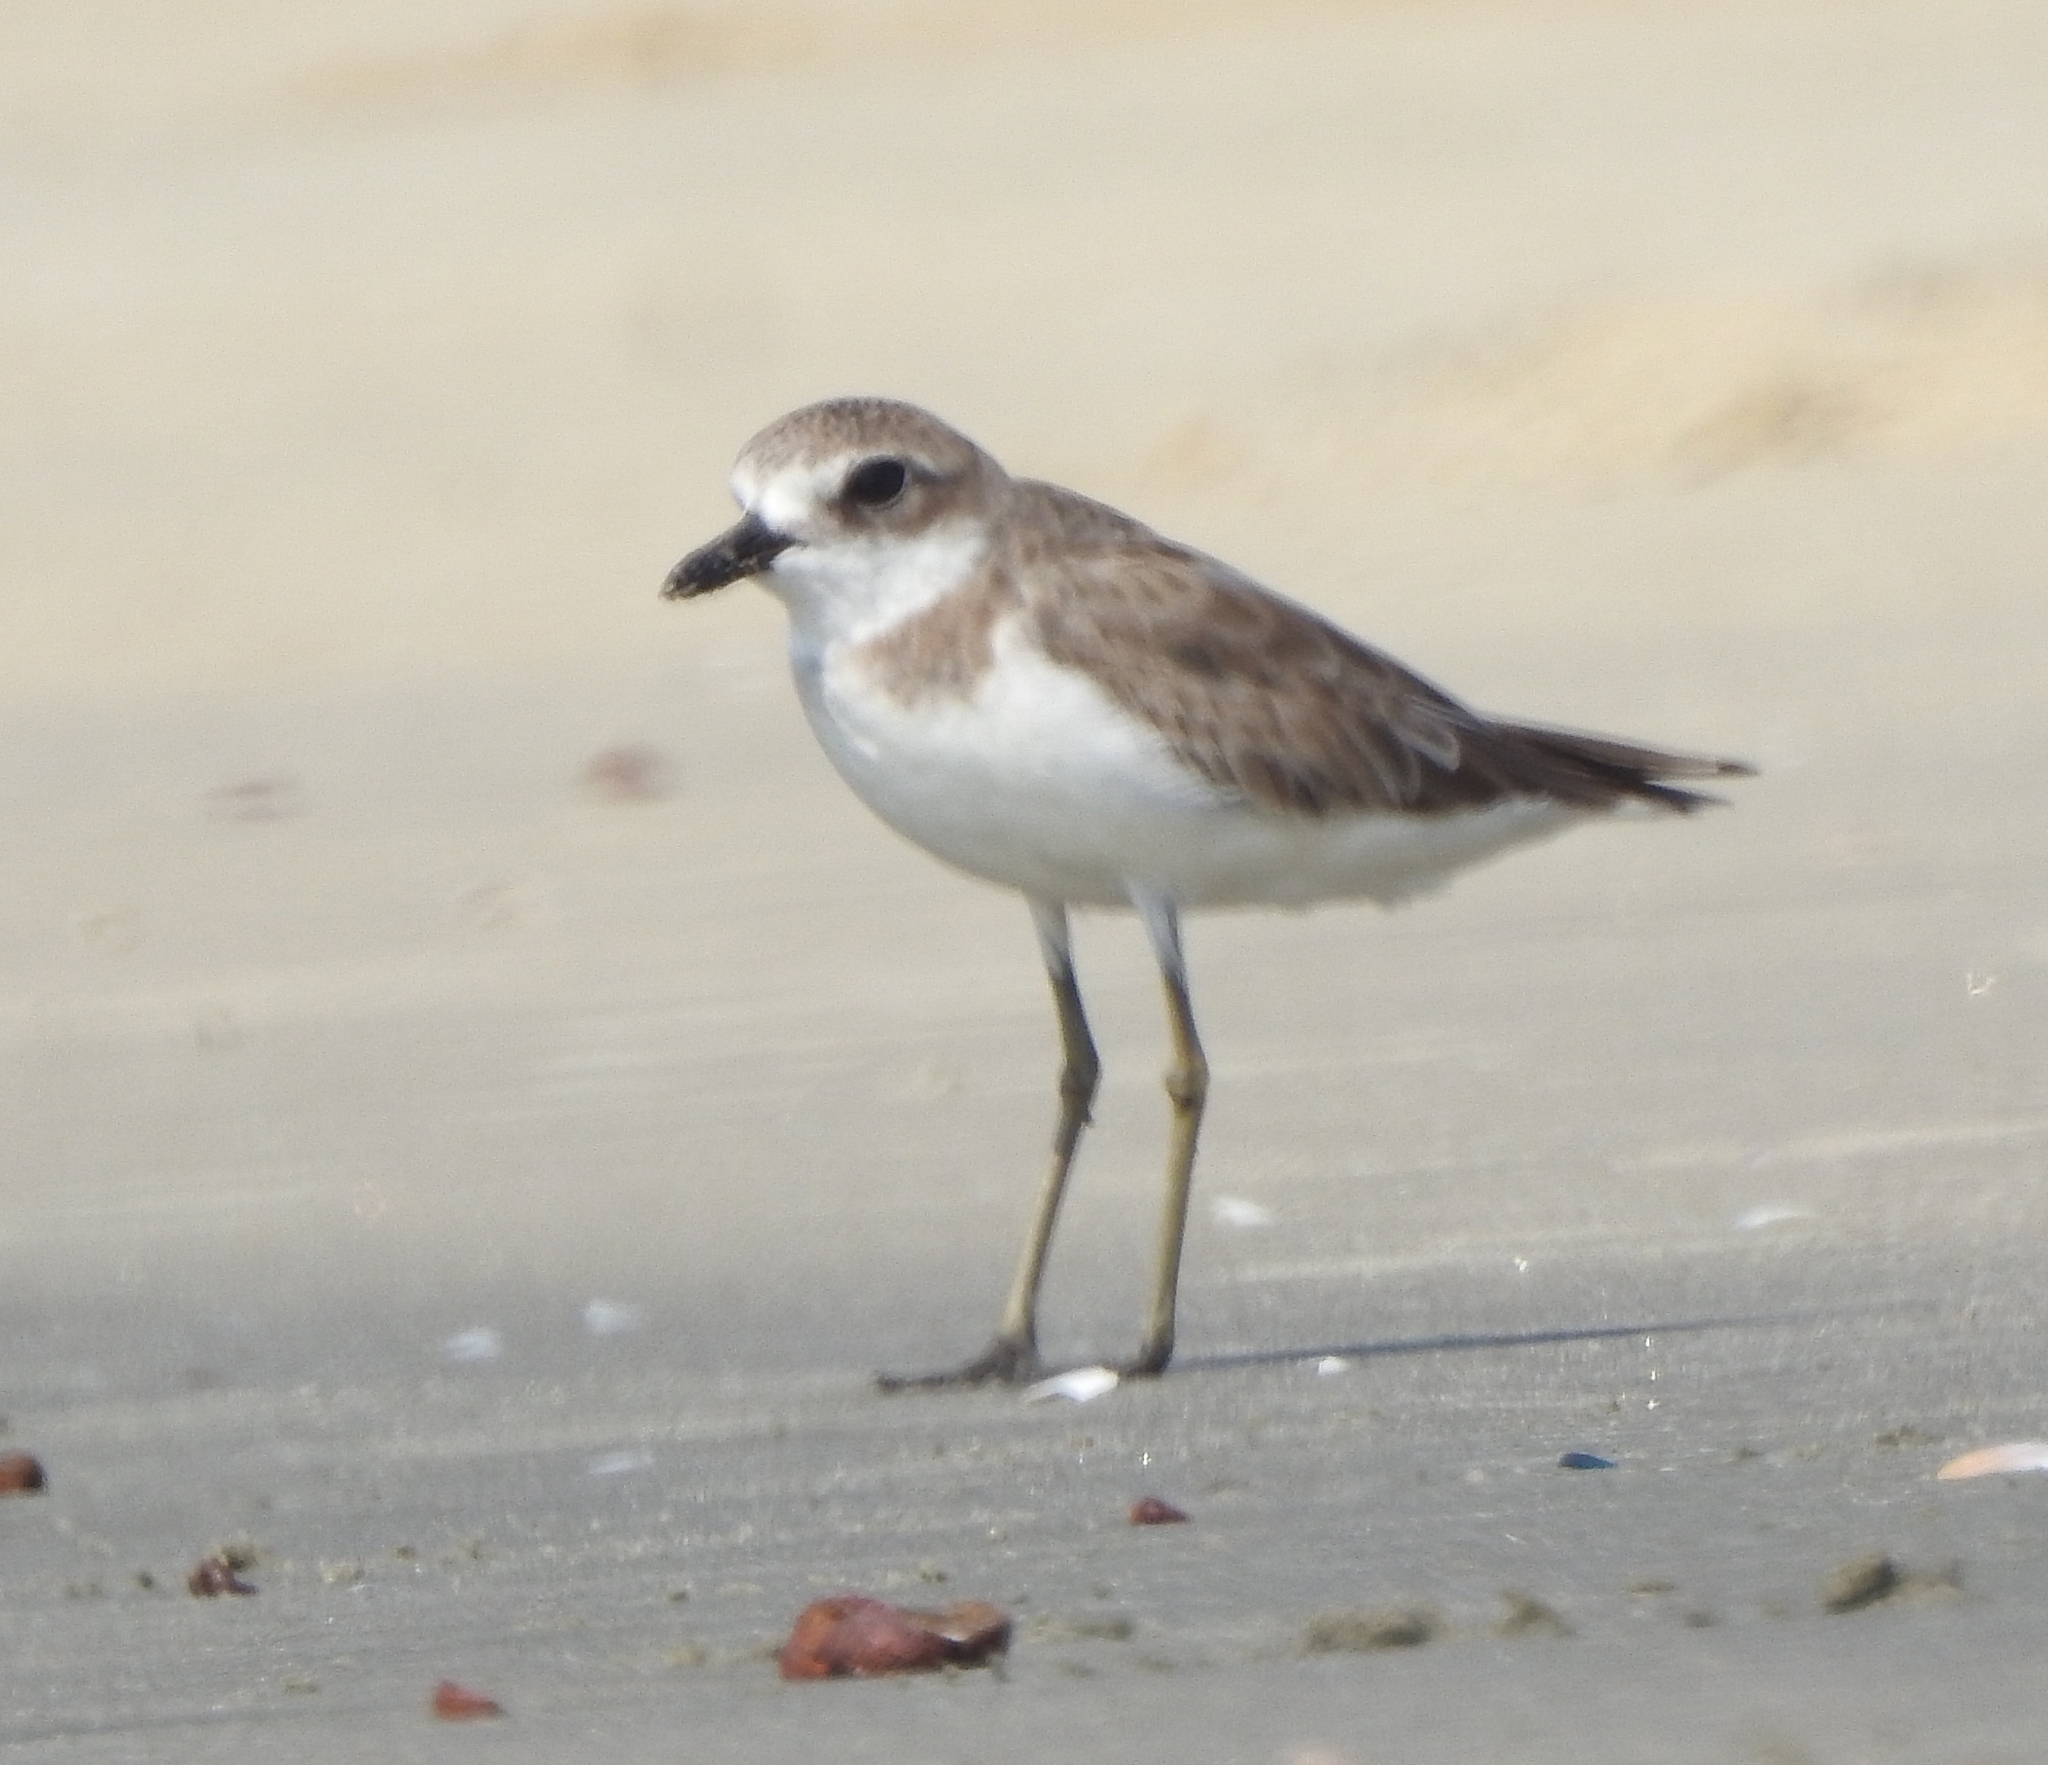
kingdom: Animalia
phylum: Chordata
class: Aves
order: Charadriiformes
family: Charadriidae
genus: Charadrius
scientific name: Charadrius leschenaultii
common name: Greater sand plover
